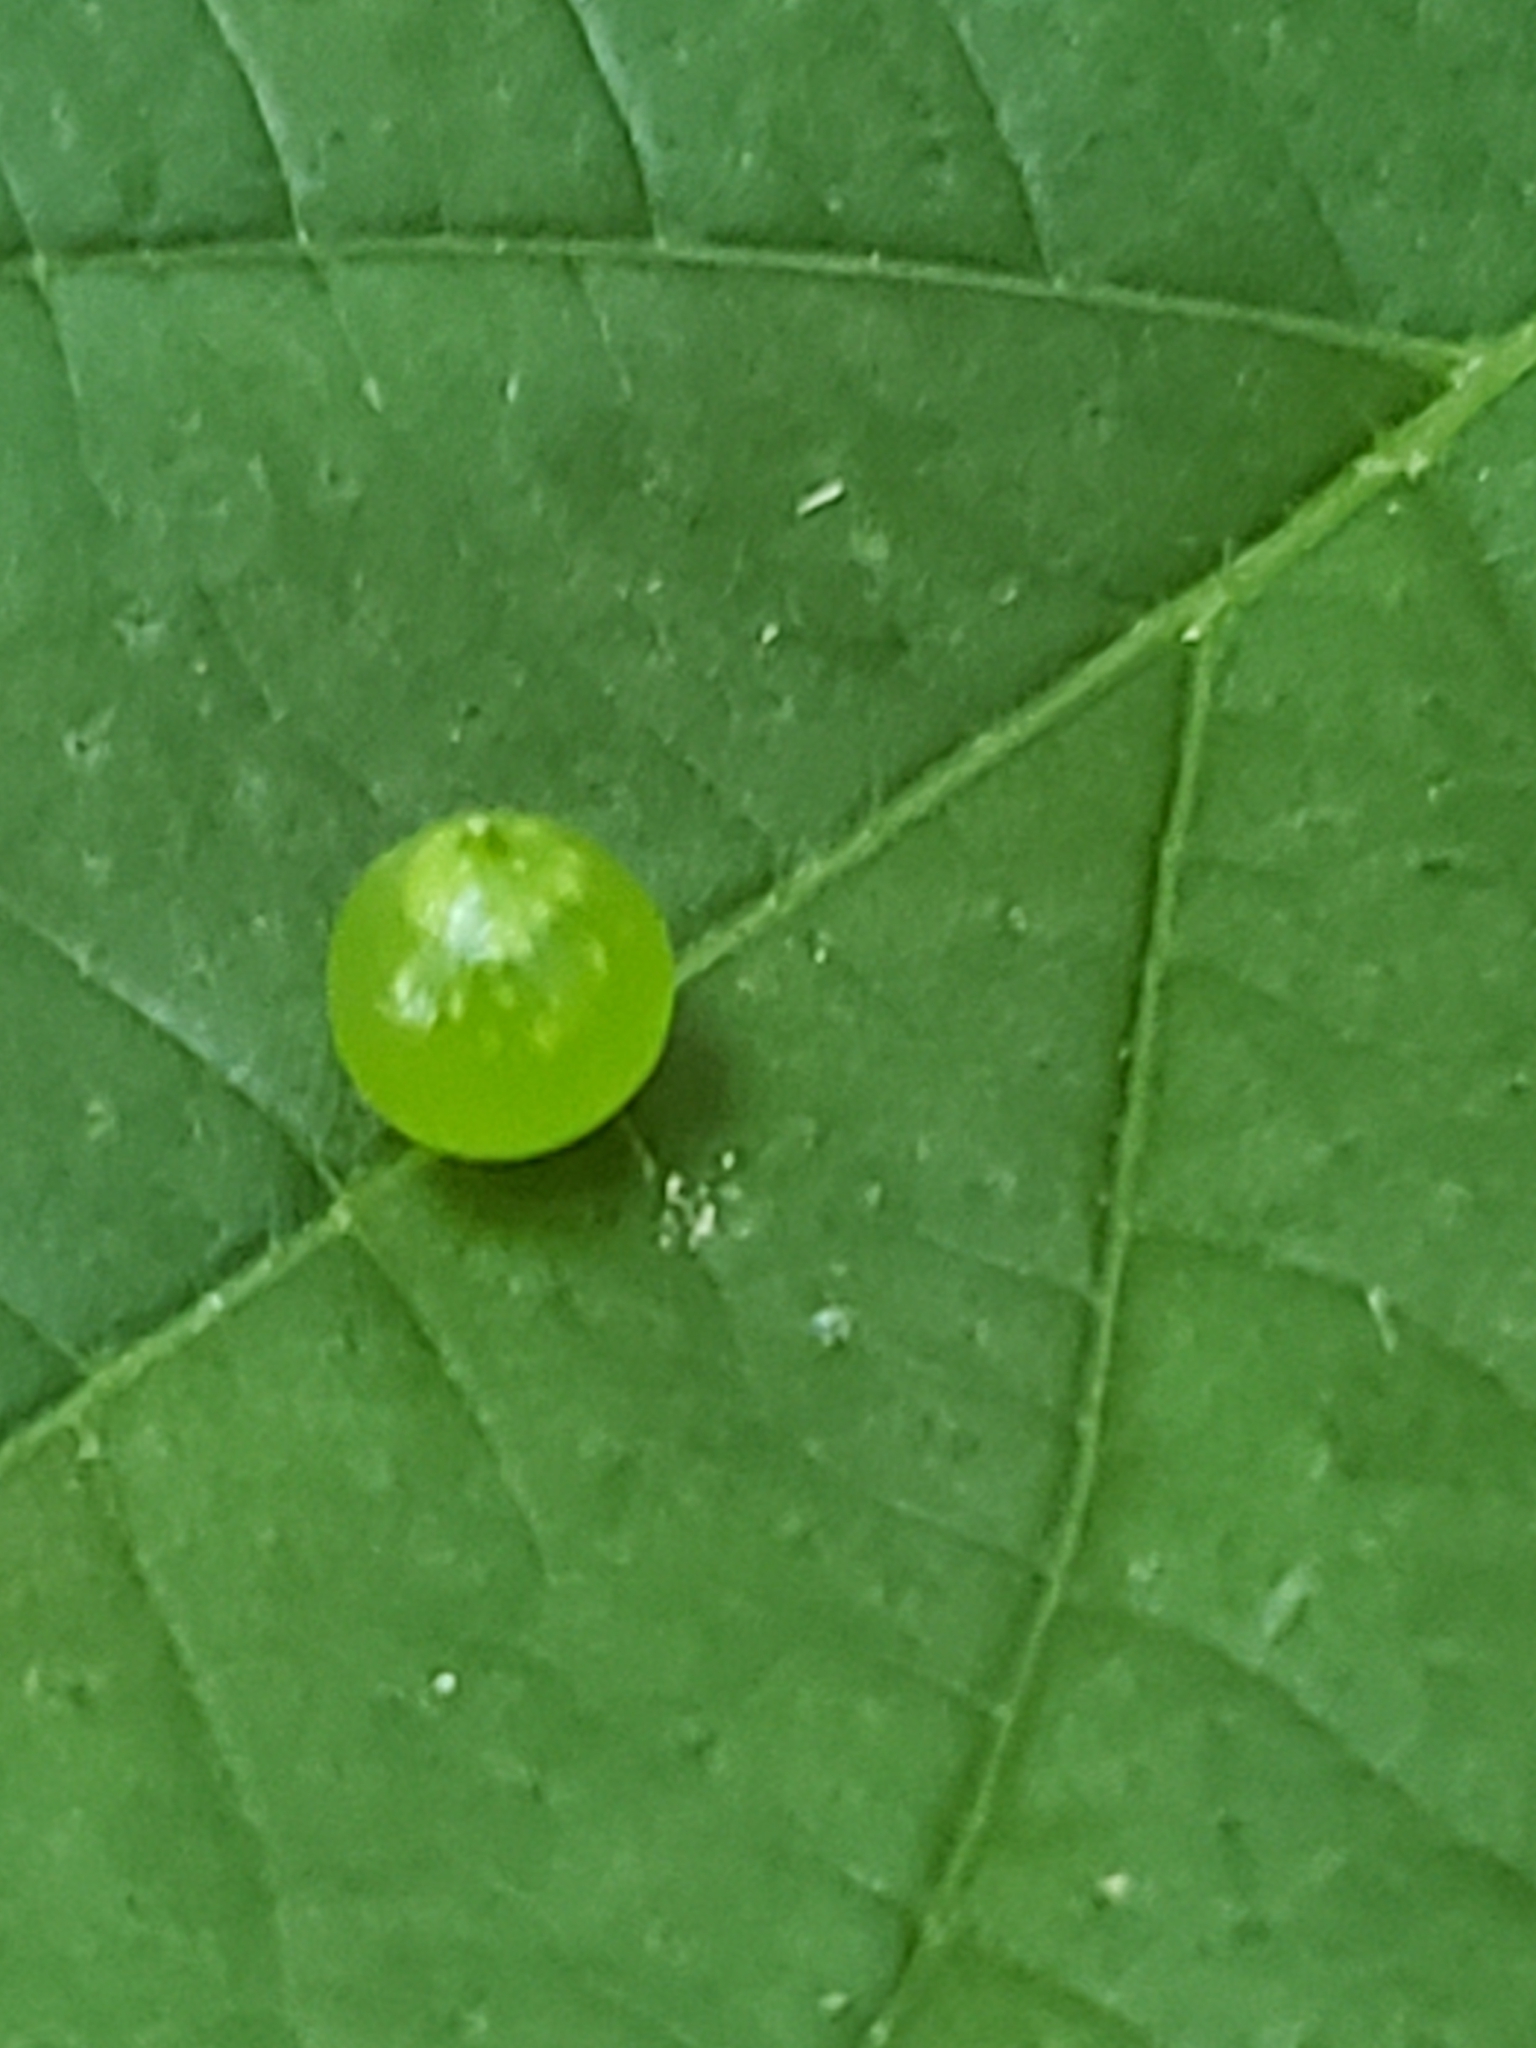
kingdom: Animalia
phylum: Arthropoda
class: Insecta
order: Diptera
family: Cecidomyiidae
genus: Dasineura
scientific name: Dasineura investita
